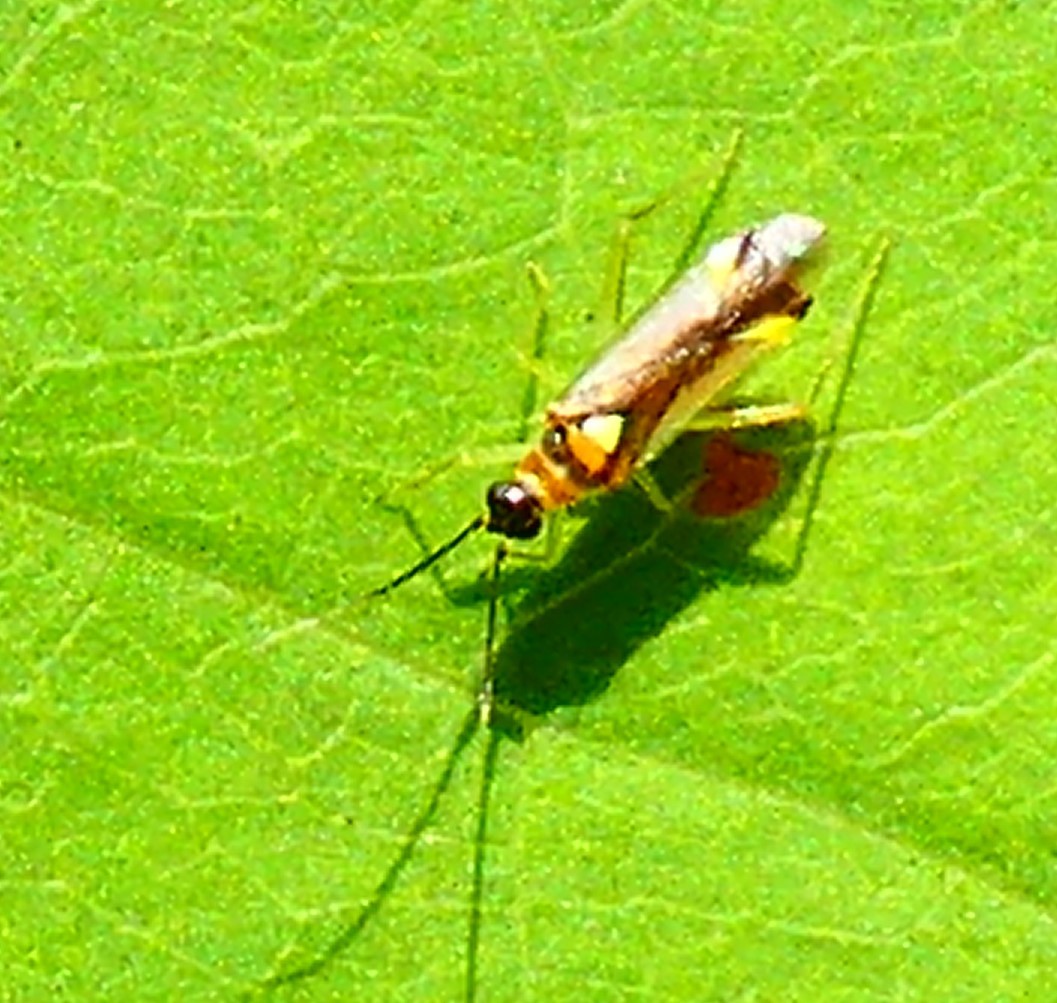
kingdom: Animalia
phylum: Arthropoda
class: Insecta
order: Hemiptera
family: Miridae
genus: Campyloneura
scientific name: Campyloneura virgula
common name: Predatory bug
